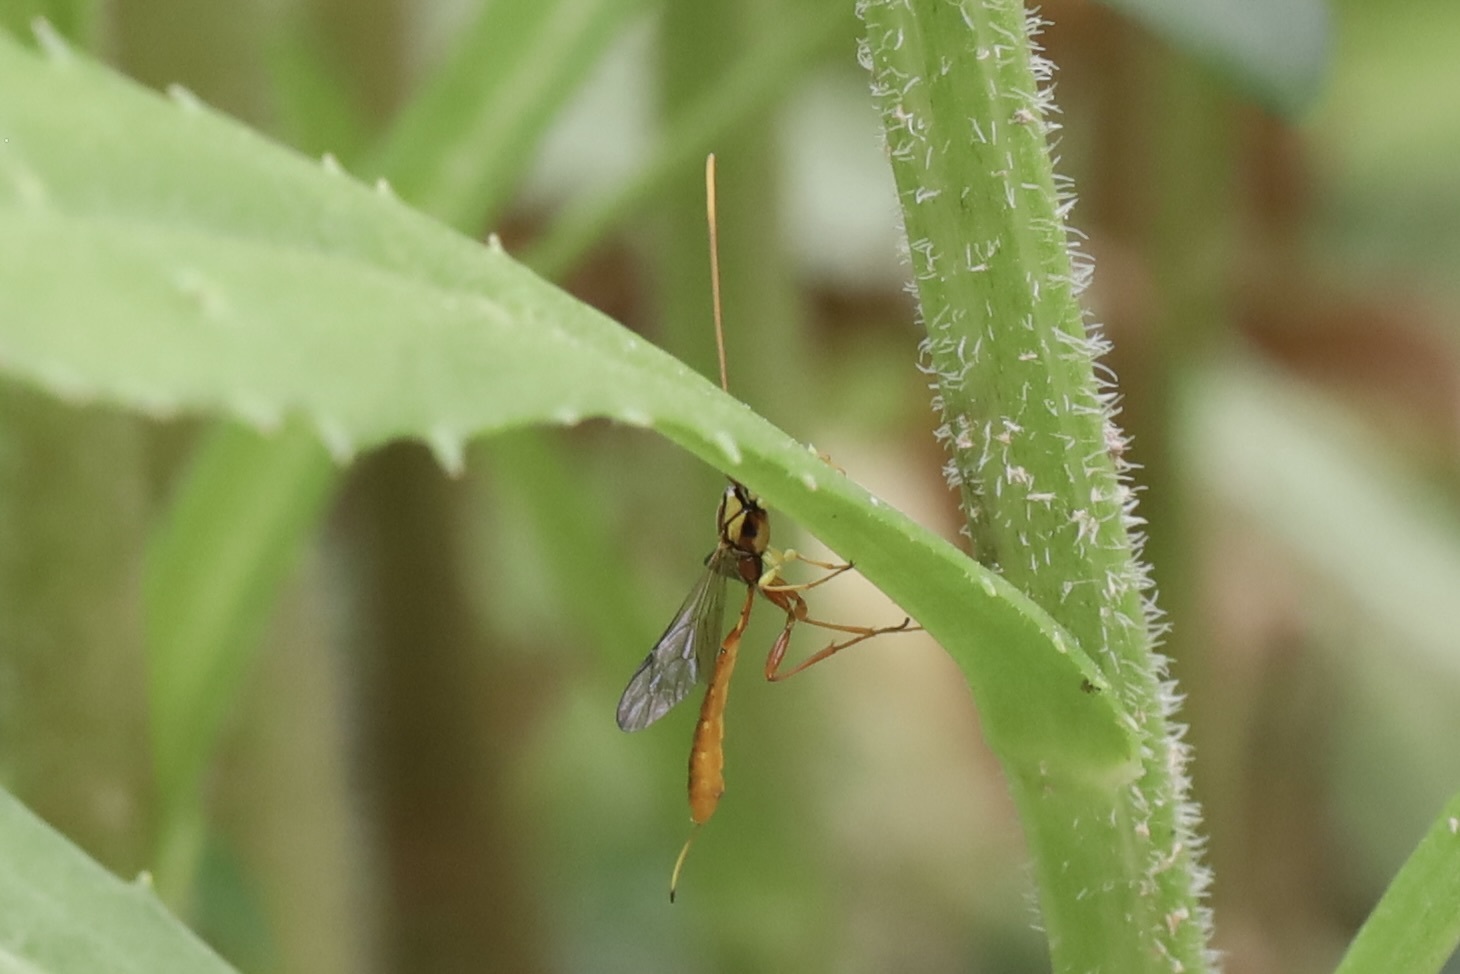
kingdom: Animalia
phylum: Arthropoda
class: Insecta
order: Hymenoptera
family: Ichneumonidae
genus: Grotea
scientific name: Grotea californica
